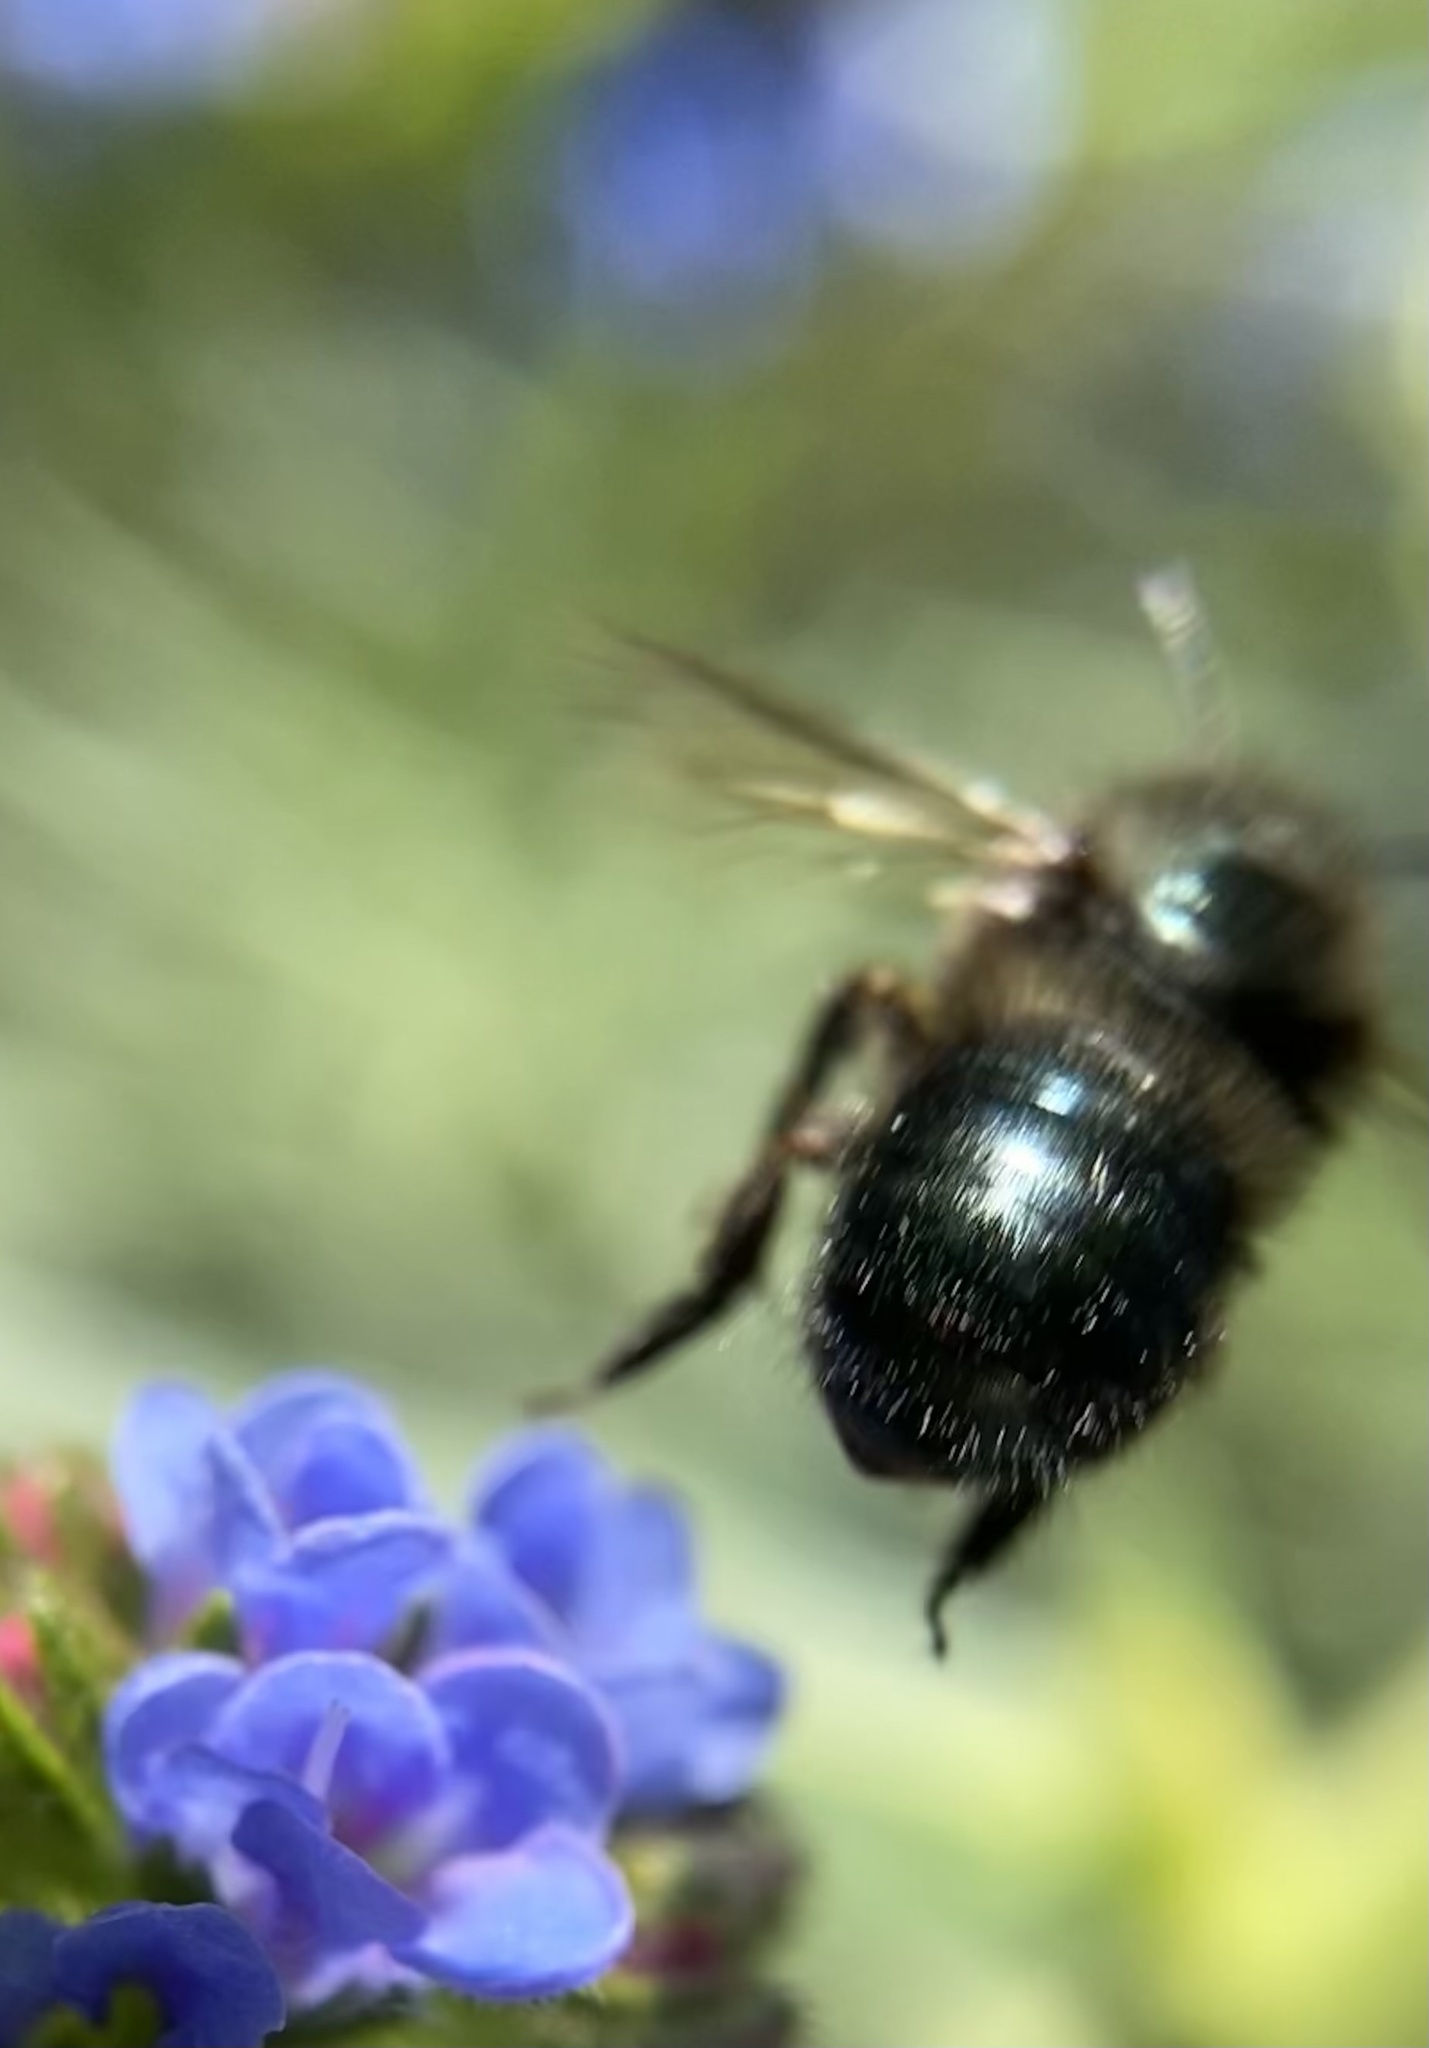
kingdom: Animalia
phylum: Arthropoda
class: Insecta
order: Hymenoptera
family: Megachilidae
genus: Osmia
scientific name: Osmia lignaria
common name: Blue orchard bee
